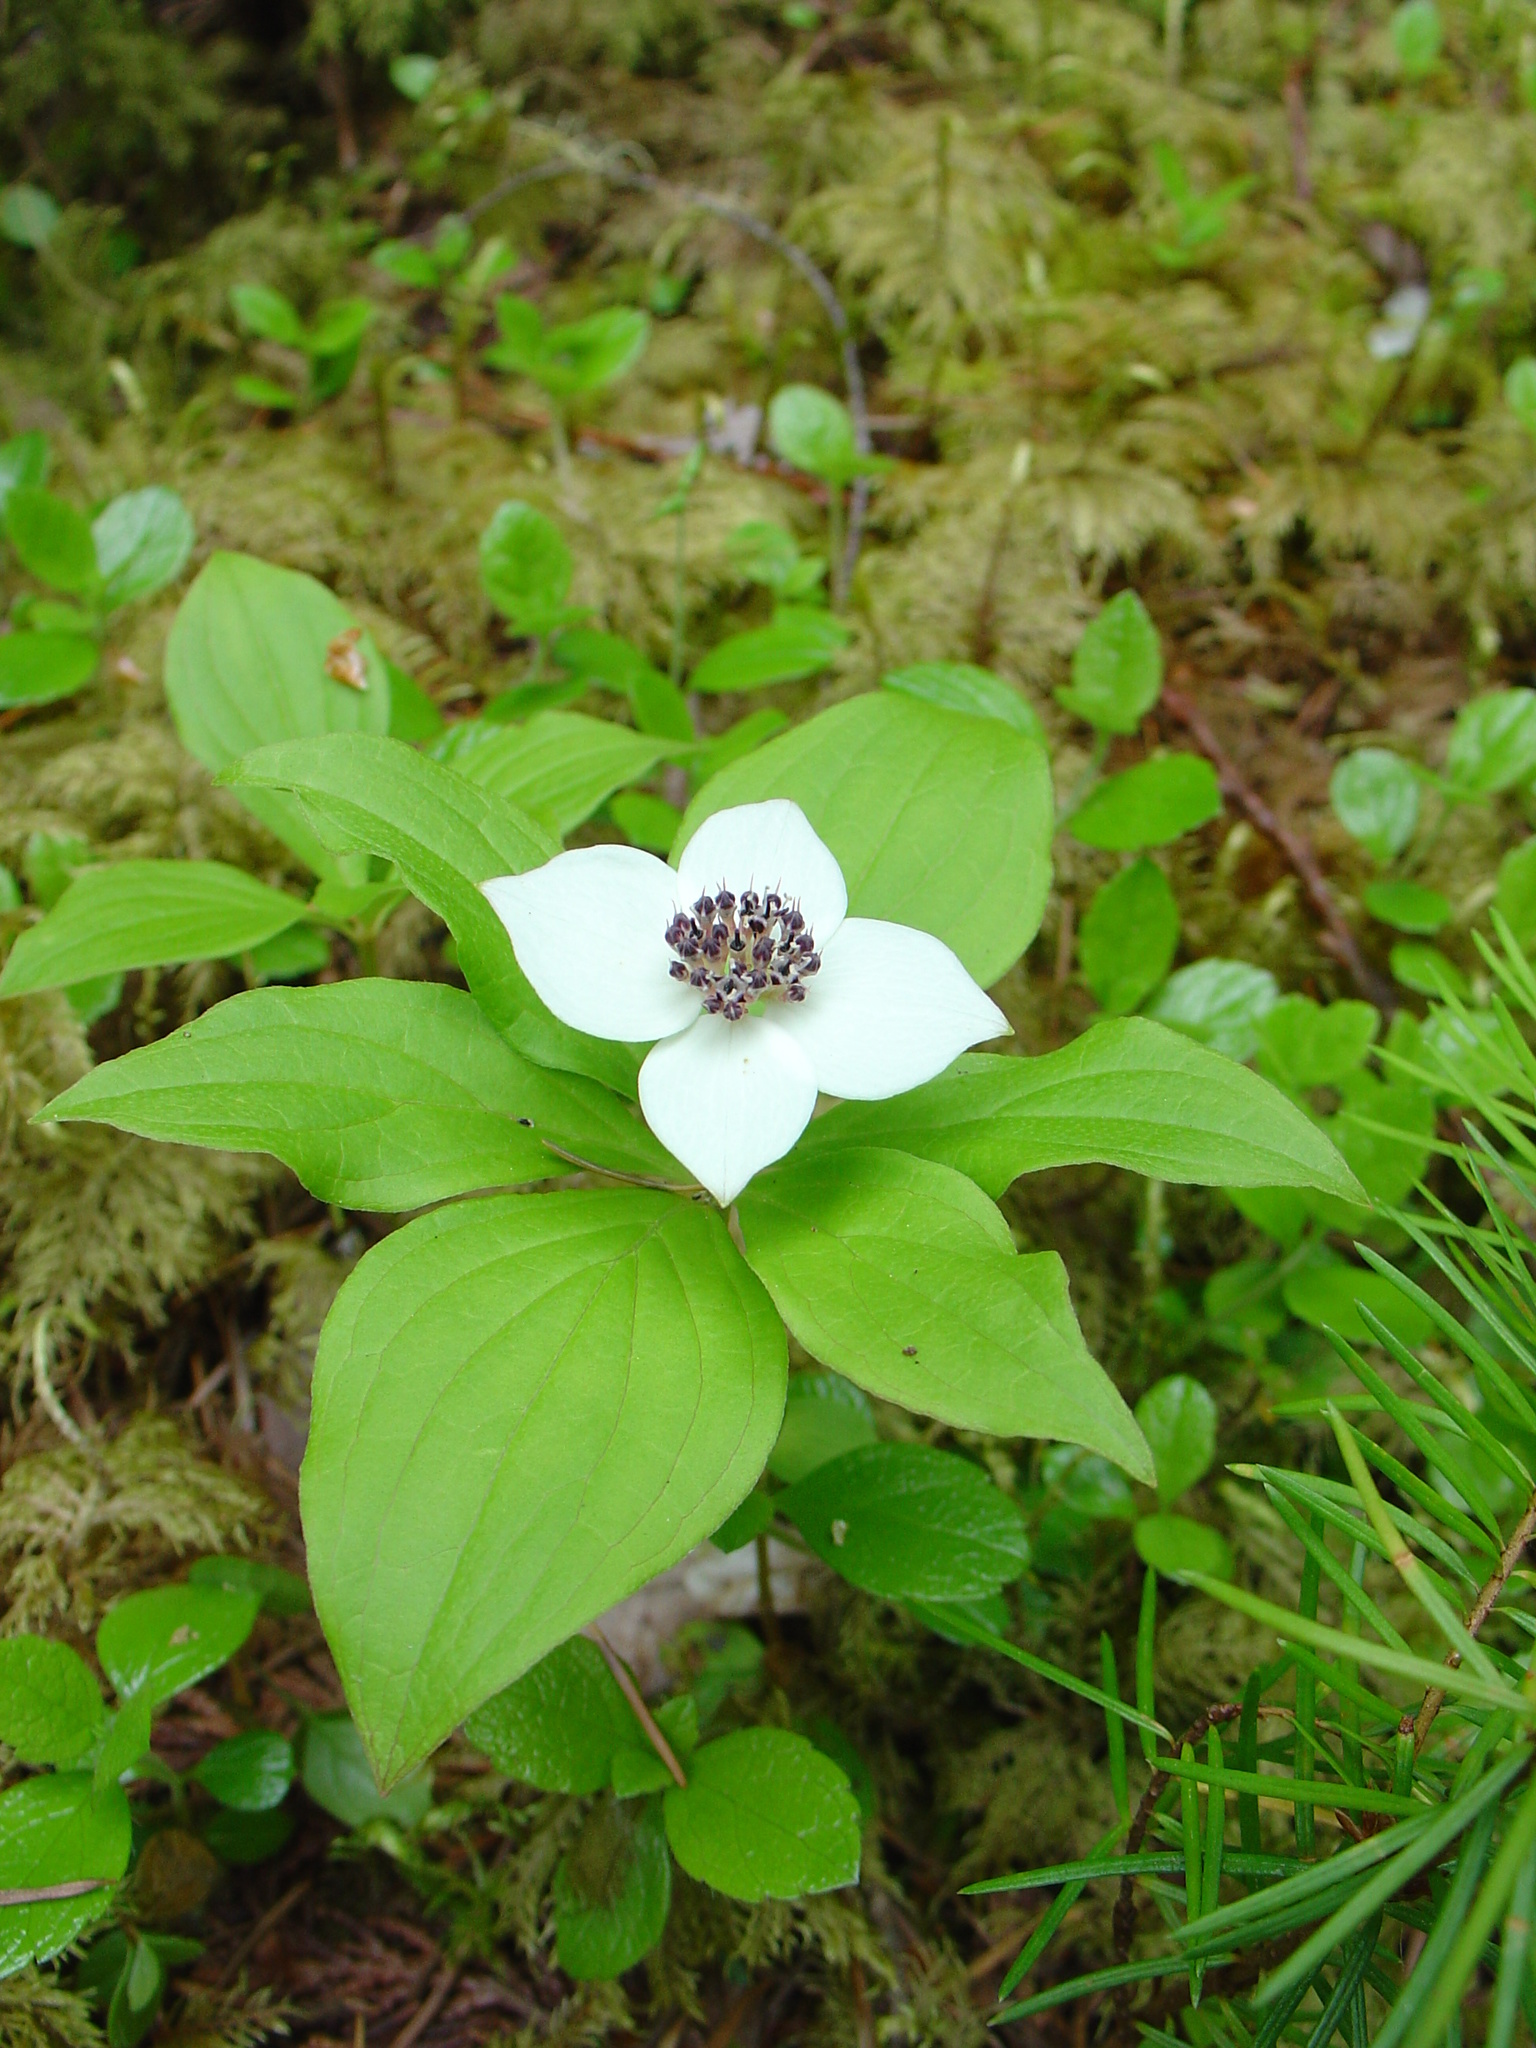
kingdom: Plantae
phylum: Tracheophyta
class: Magnoliopsida
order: Cornales
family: Cornaceae
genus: Cornus
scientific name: Cornus unalaschkensis
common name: Alaska bunchberry
